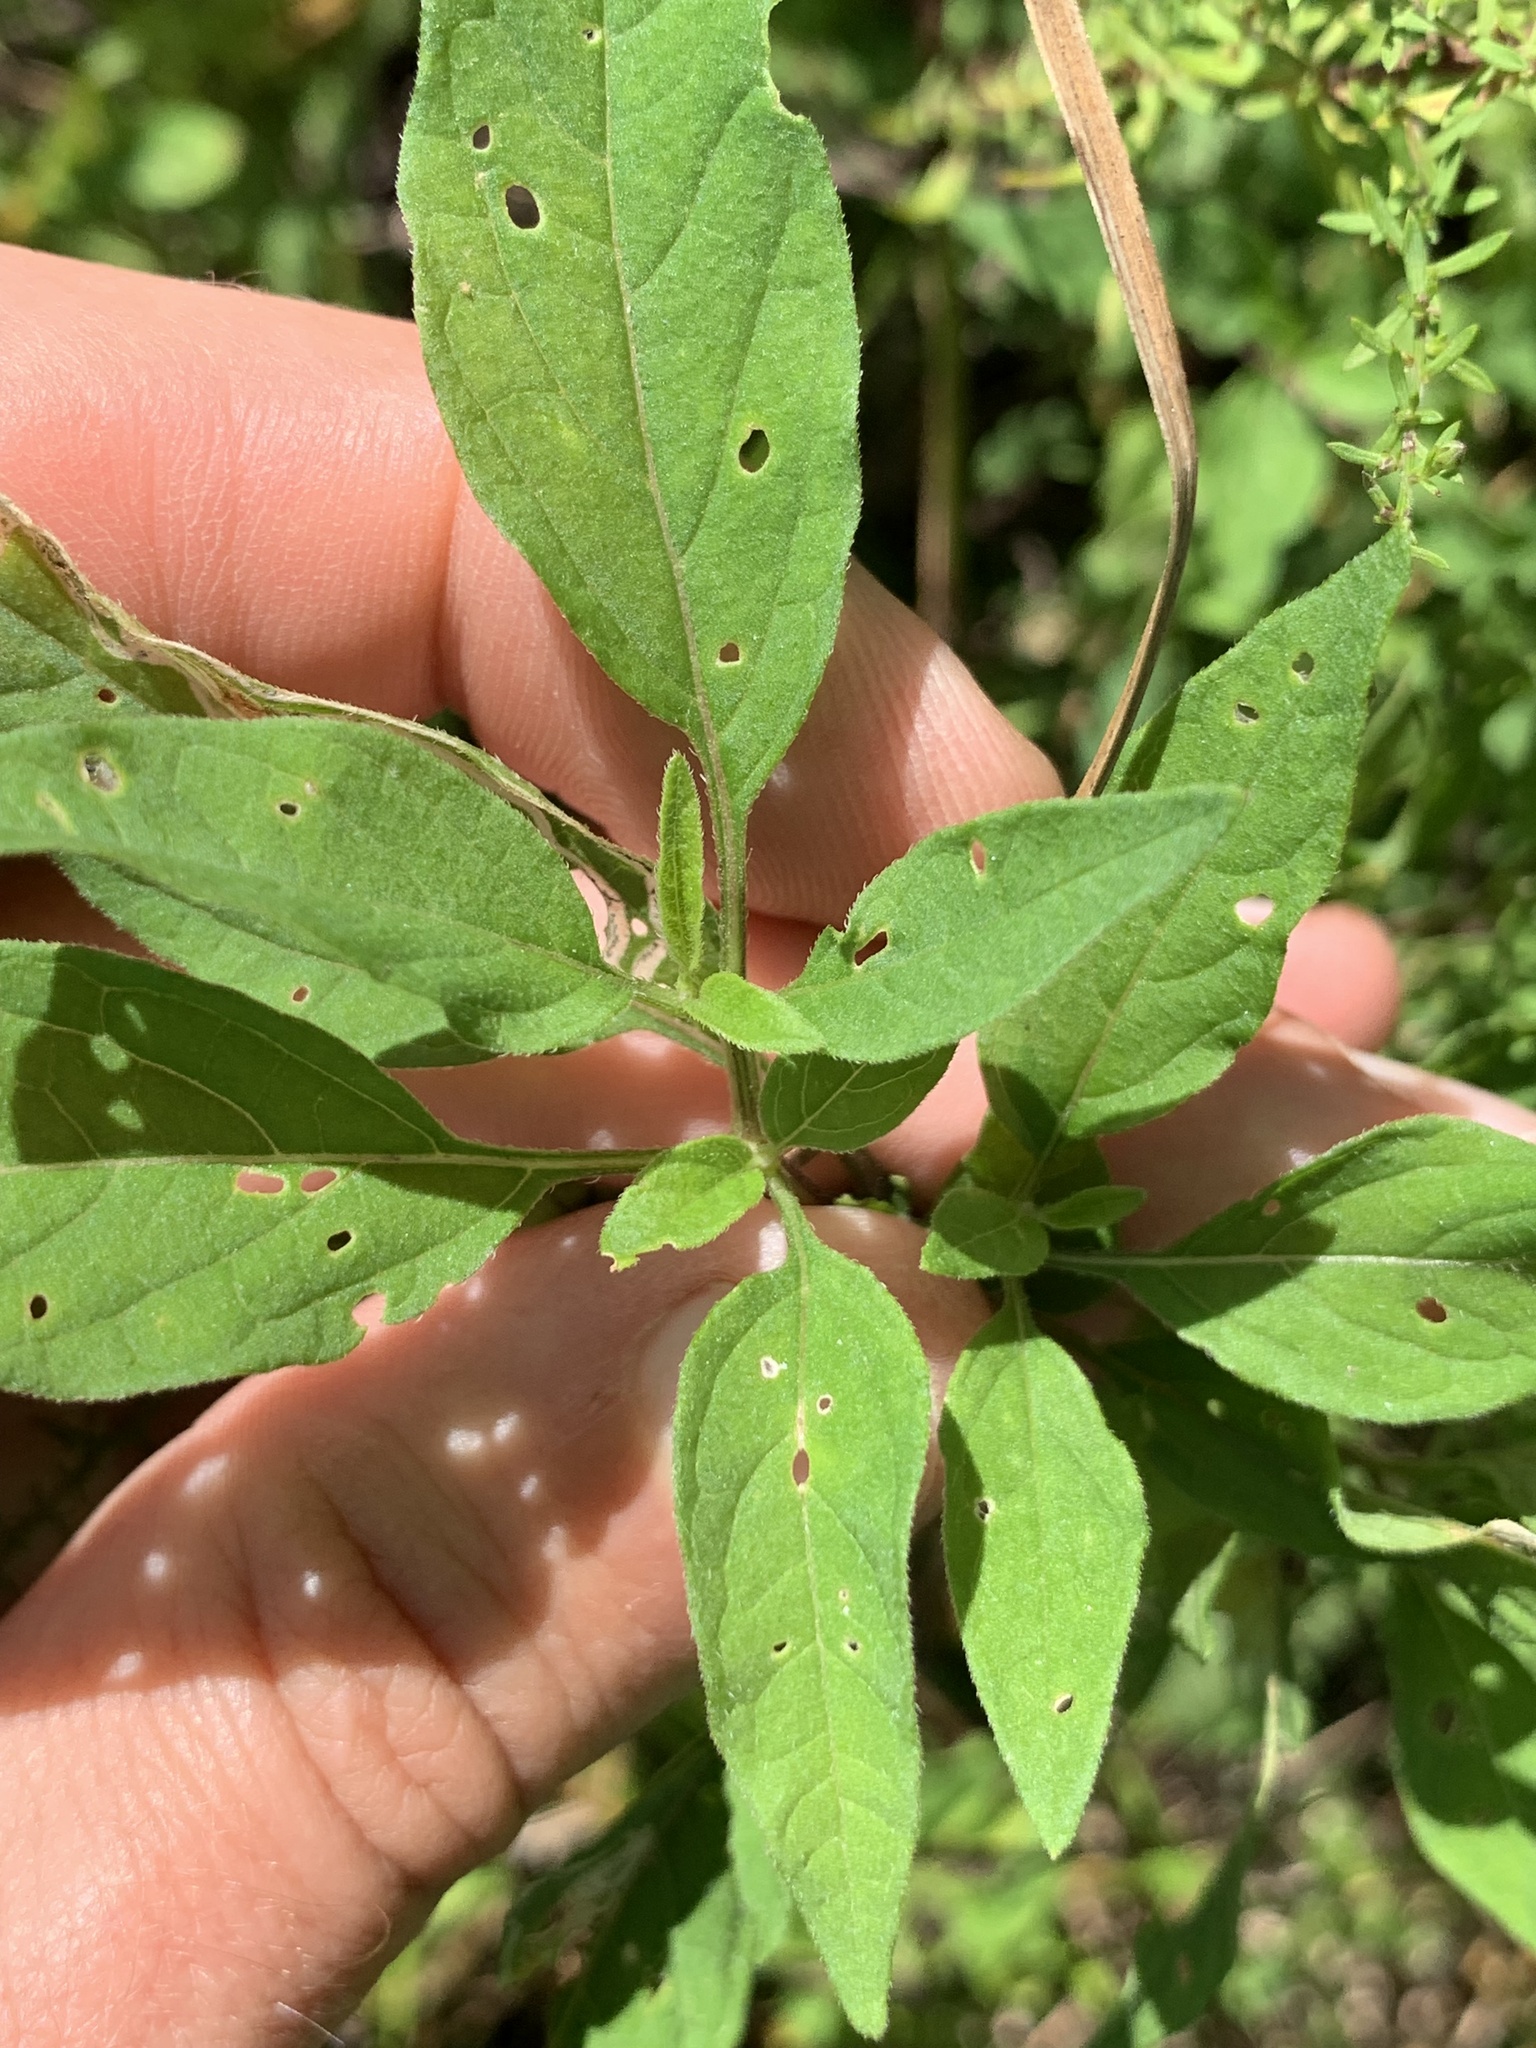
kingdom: Plantae
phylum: Tracheophyta
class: Magnoliopsida
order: Solanales
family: Solanaceae
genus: Physalis
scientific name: Physalis longifolia
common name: Common ground-cherry
